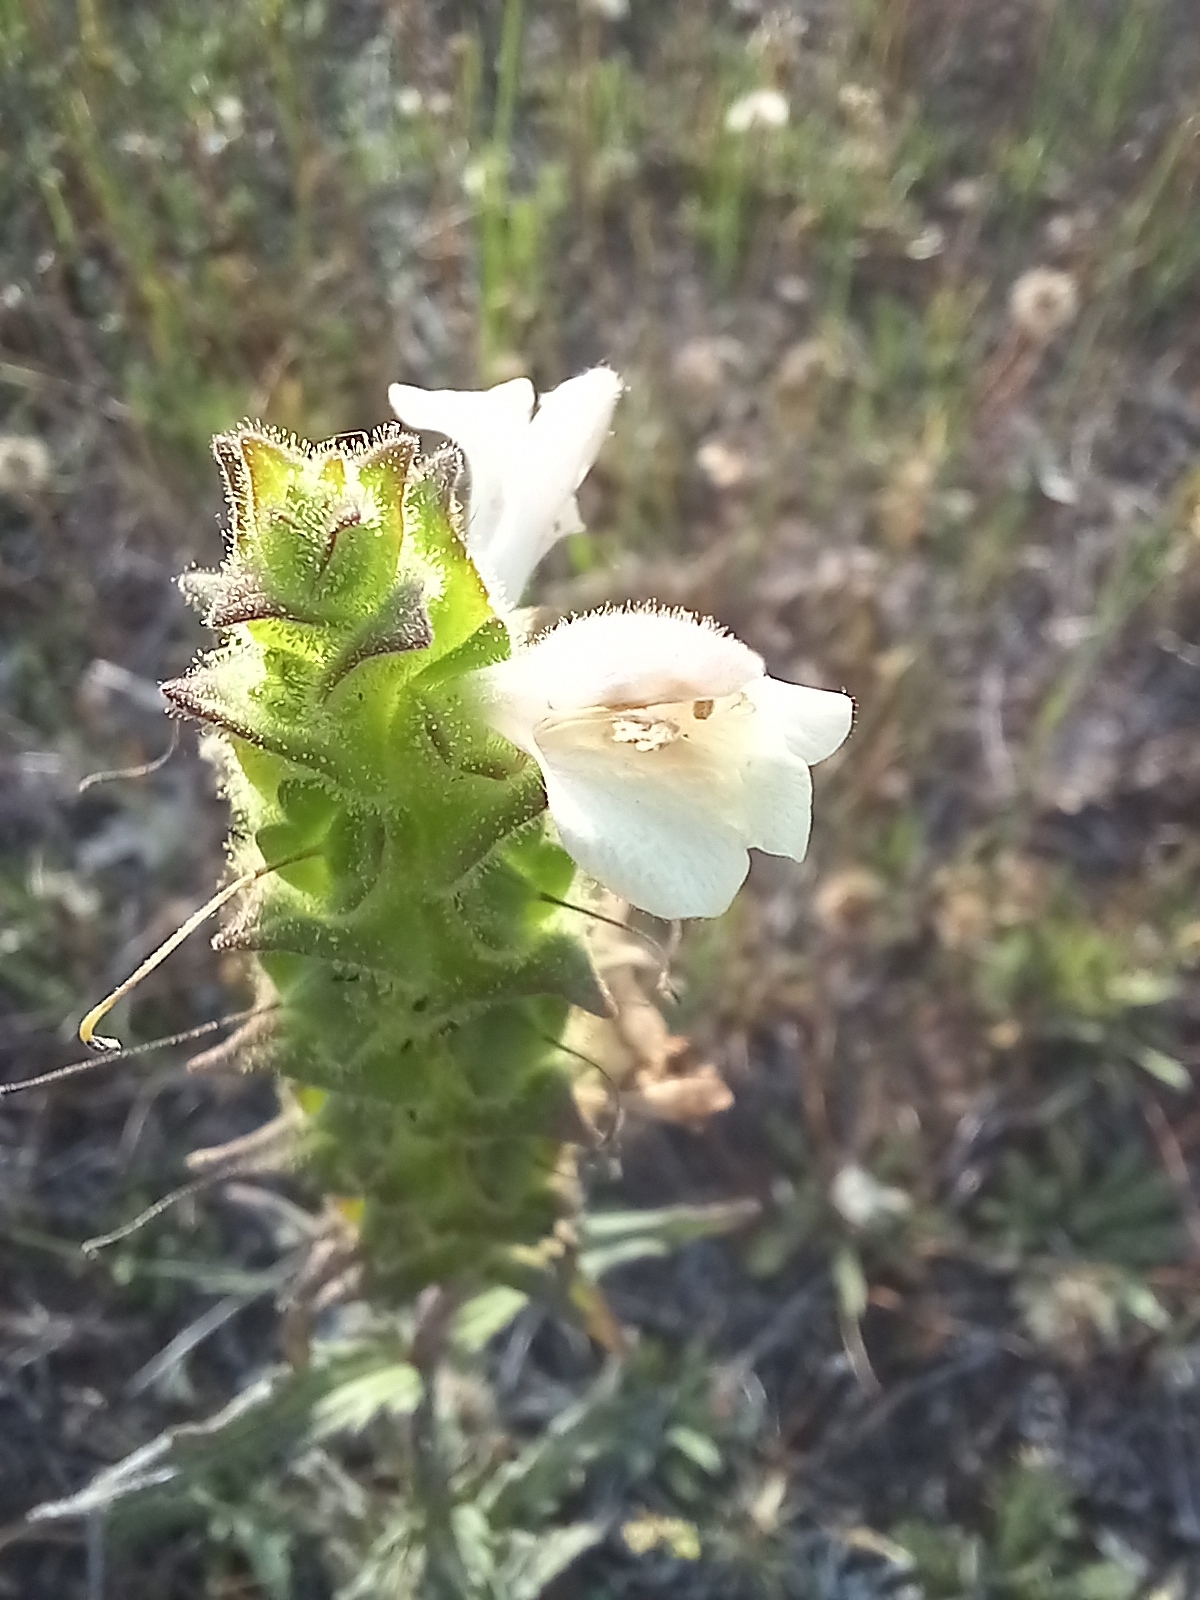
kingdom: Plantae
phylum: Tracheophyta
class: Magnoliopsida
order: Lamiales
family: Orobanchaceae
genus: Bellardia
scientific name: Bellardia trixago
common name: Mediterranean lineseed
